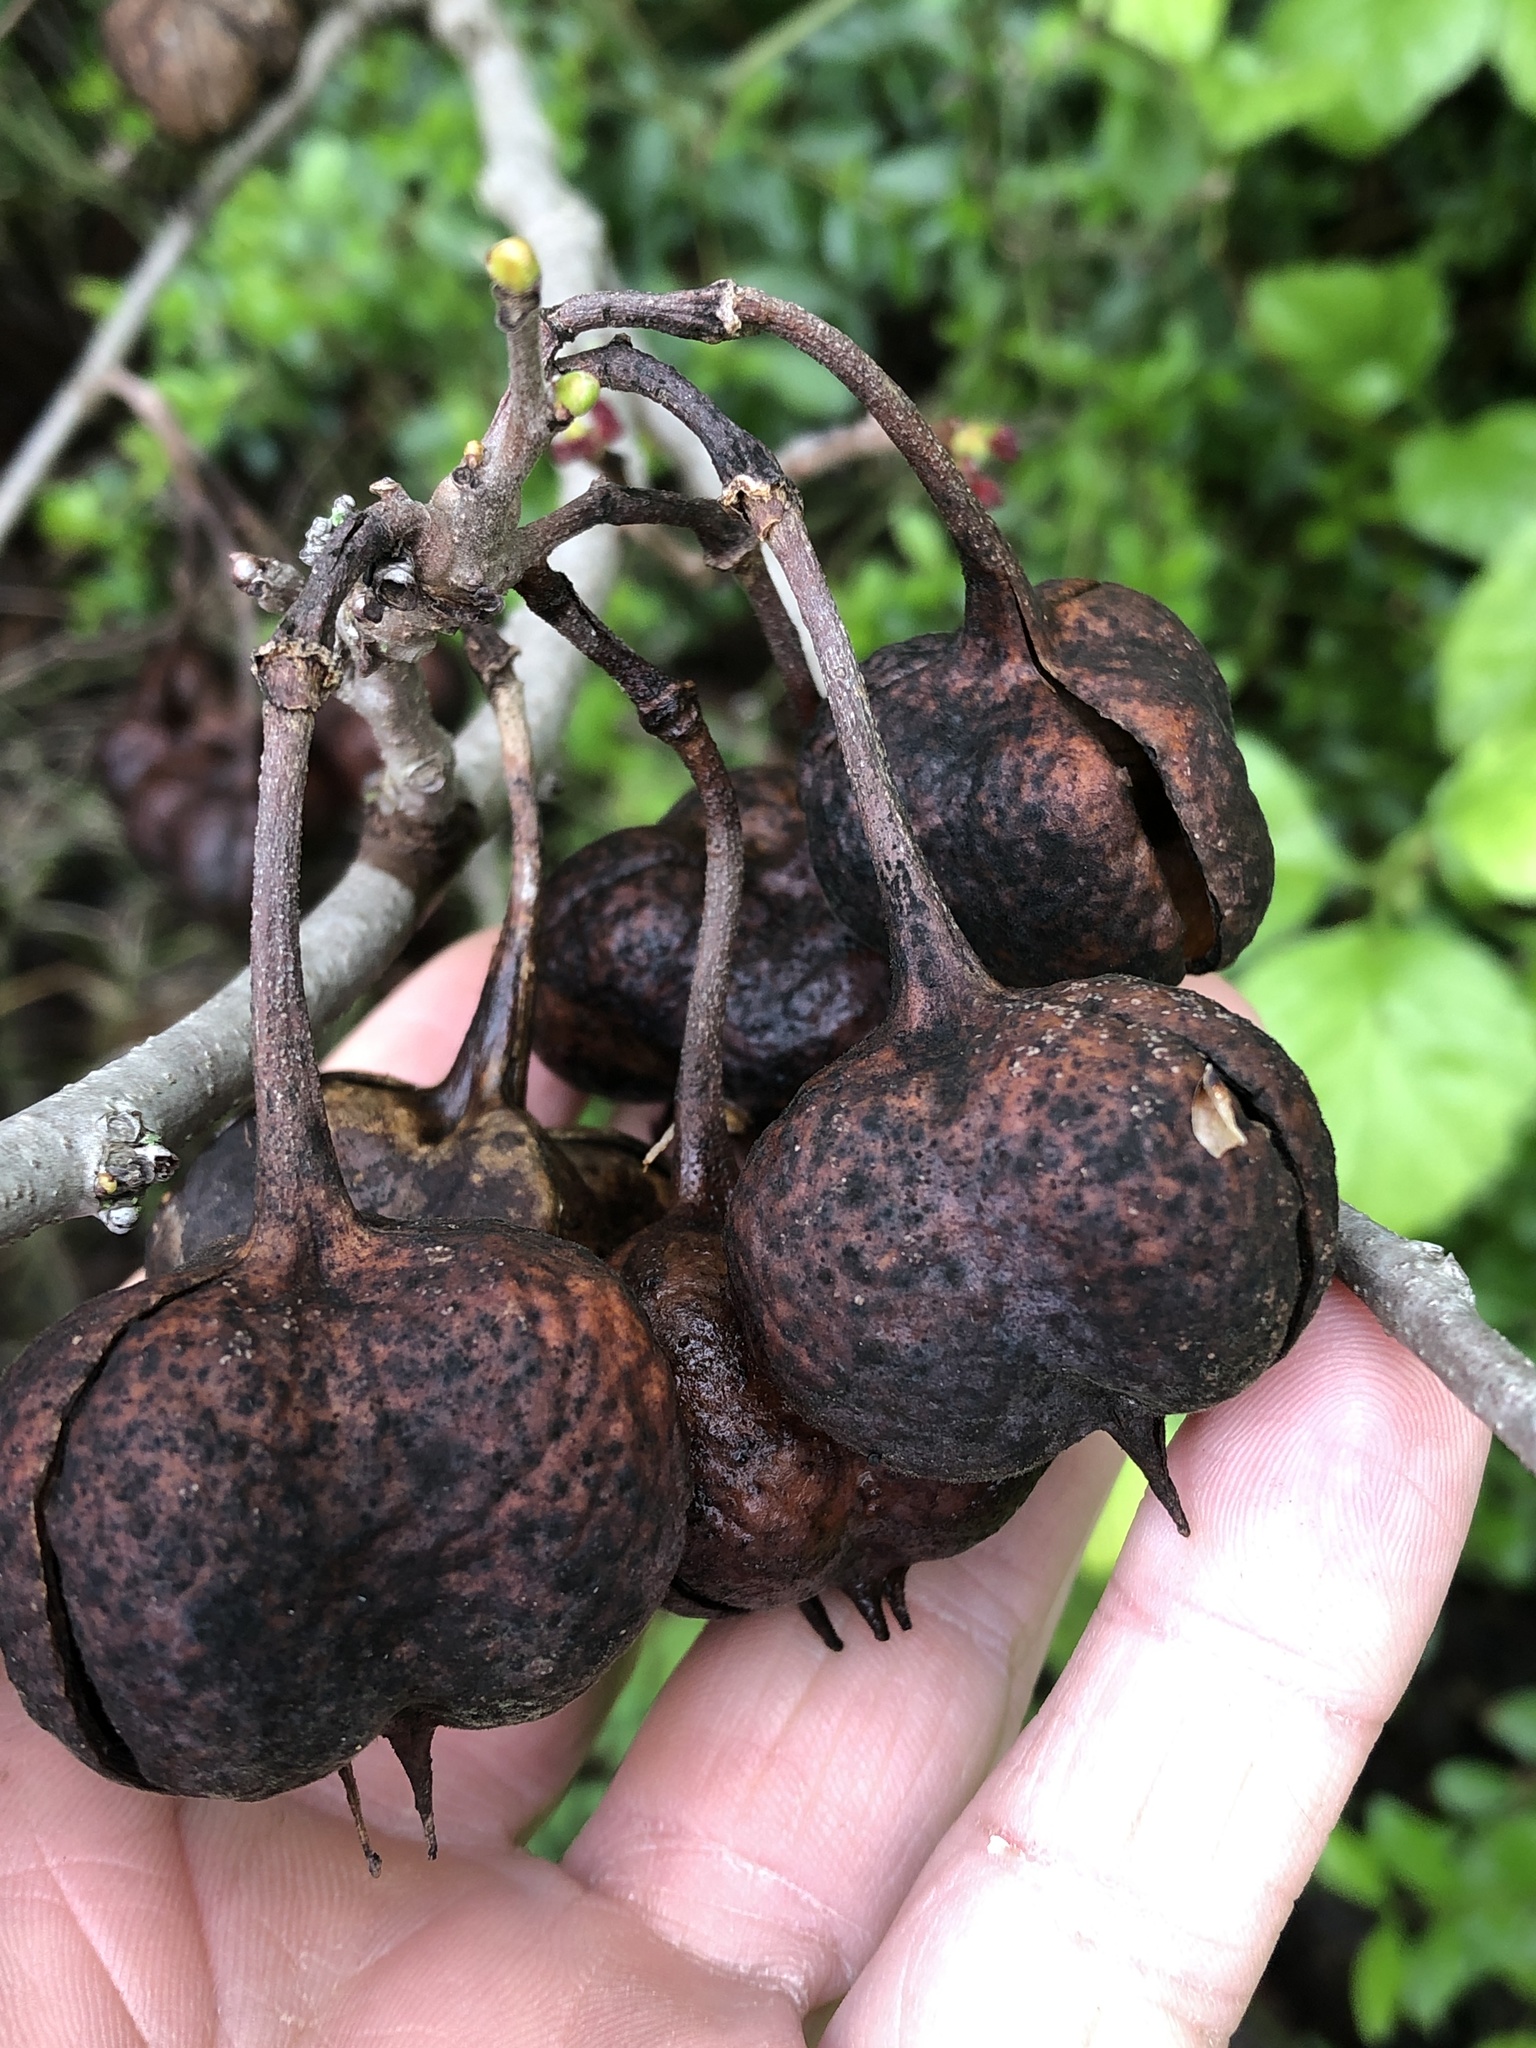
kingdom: Plantae
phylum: Tracheophyta
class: Magnoliopsida
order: Sapindales
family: Sapindaceae
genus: Ungnadia
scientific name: Ungnadia speciosa
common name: Texas-buckeye
